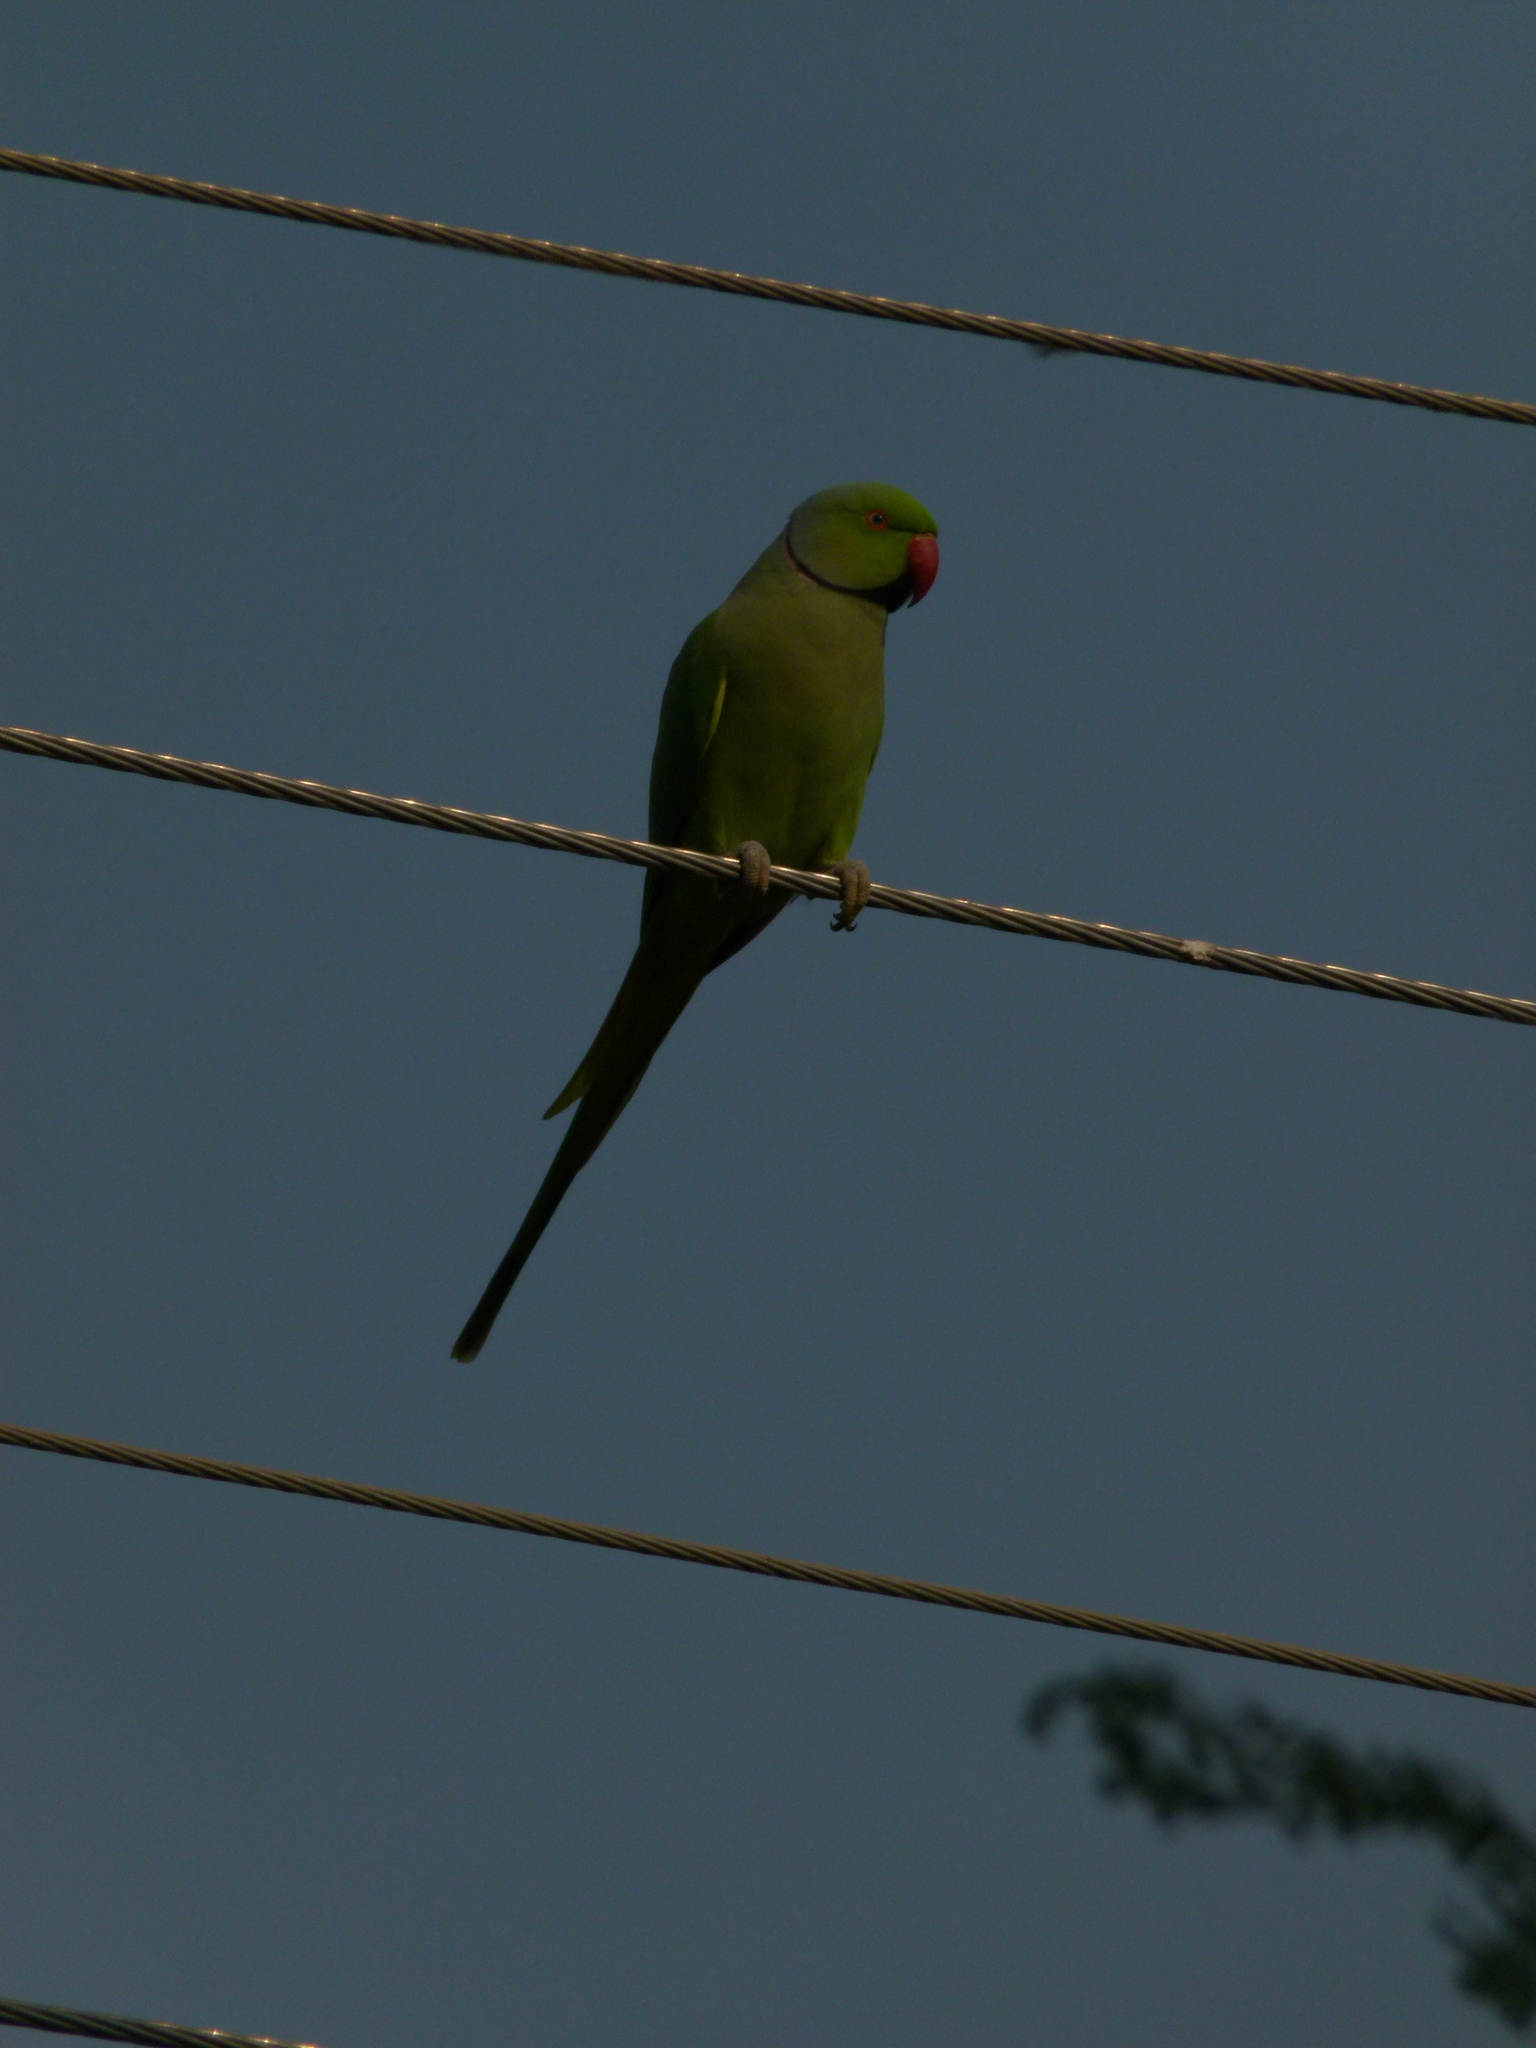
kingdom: Animalia
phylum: Chordata
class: Aves
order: Psittaciformes
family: Psittacidae
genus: Psittacula
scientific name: Psittacula krameri
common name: Rose-ringed parakeet
